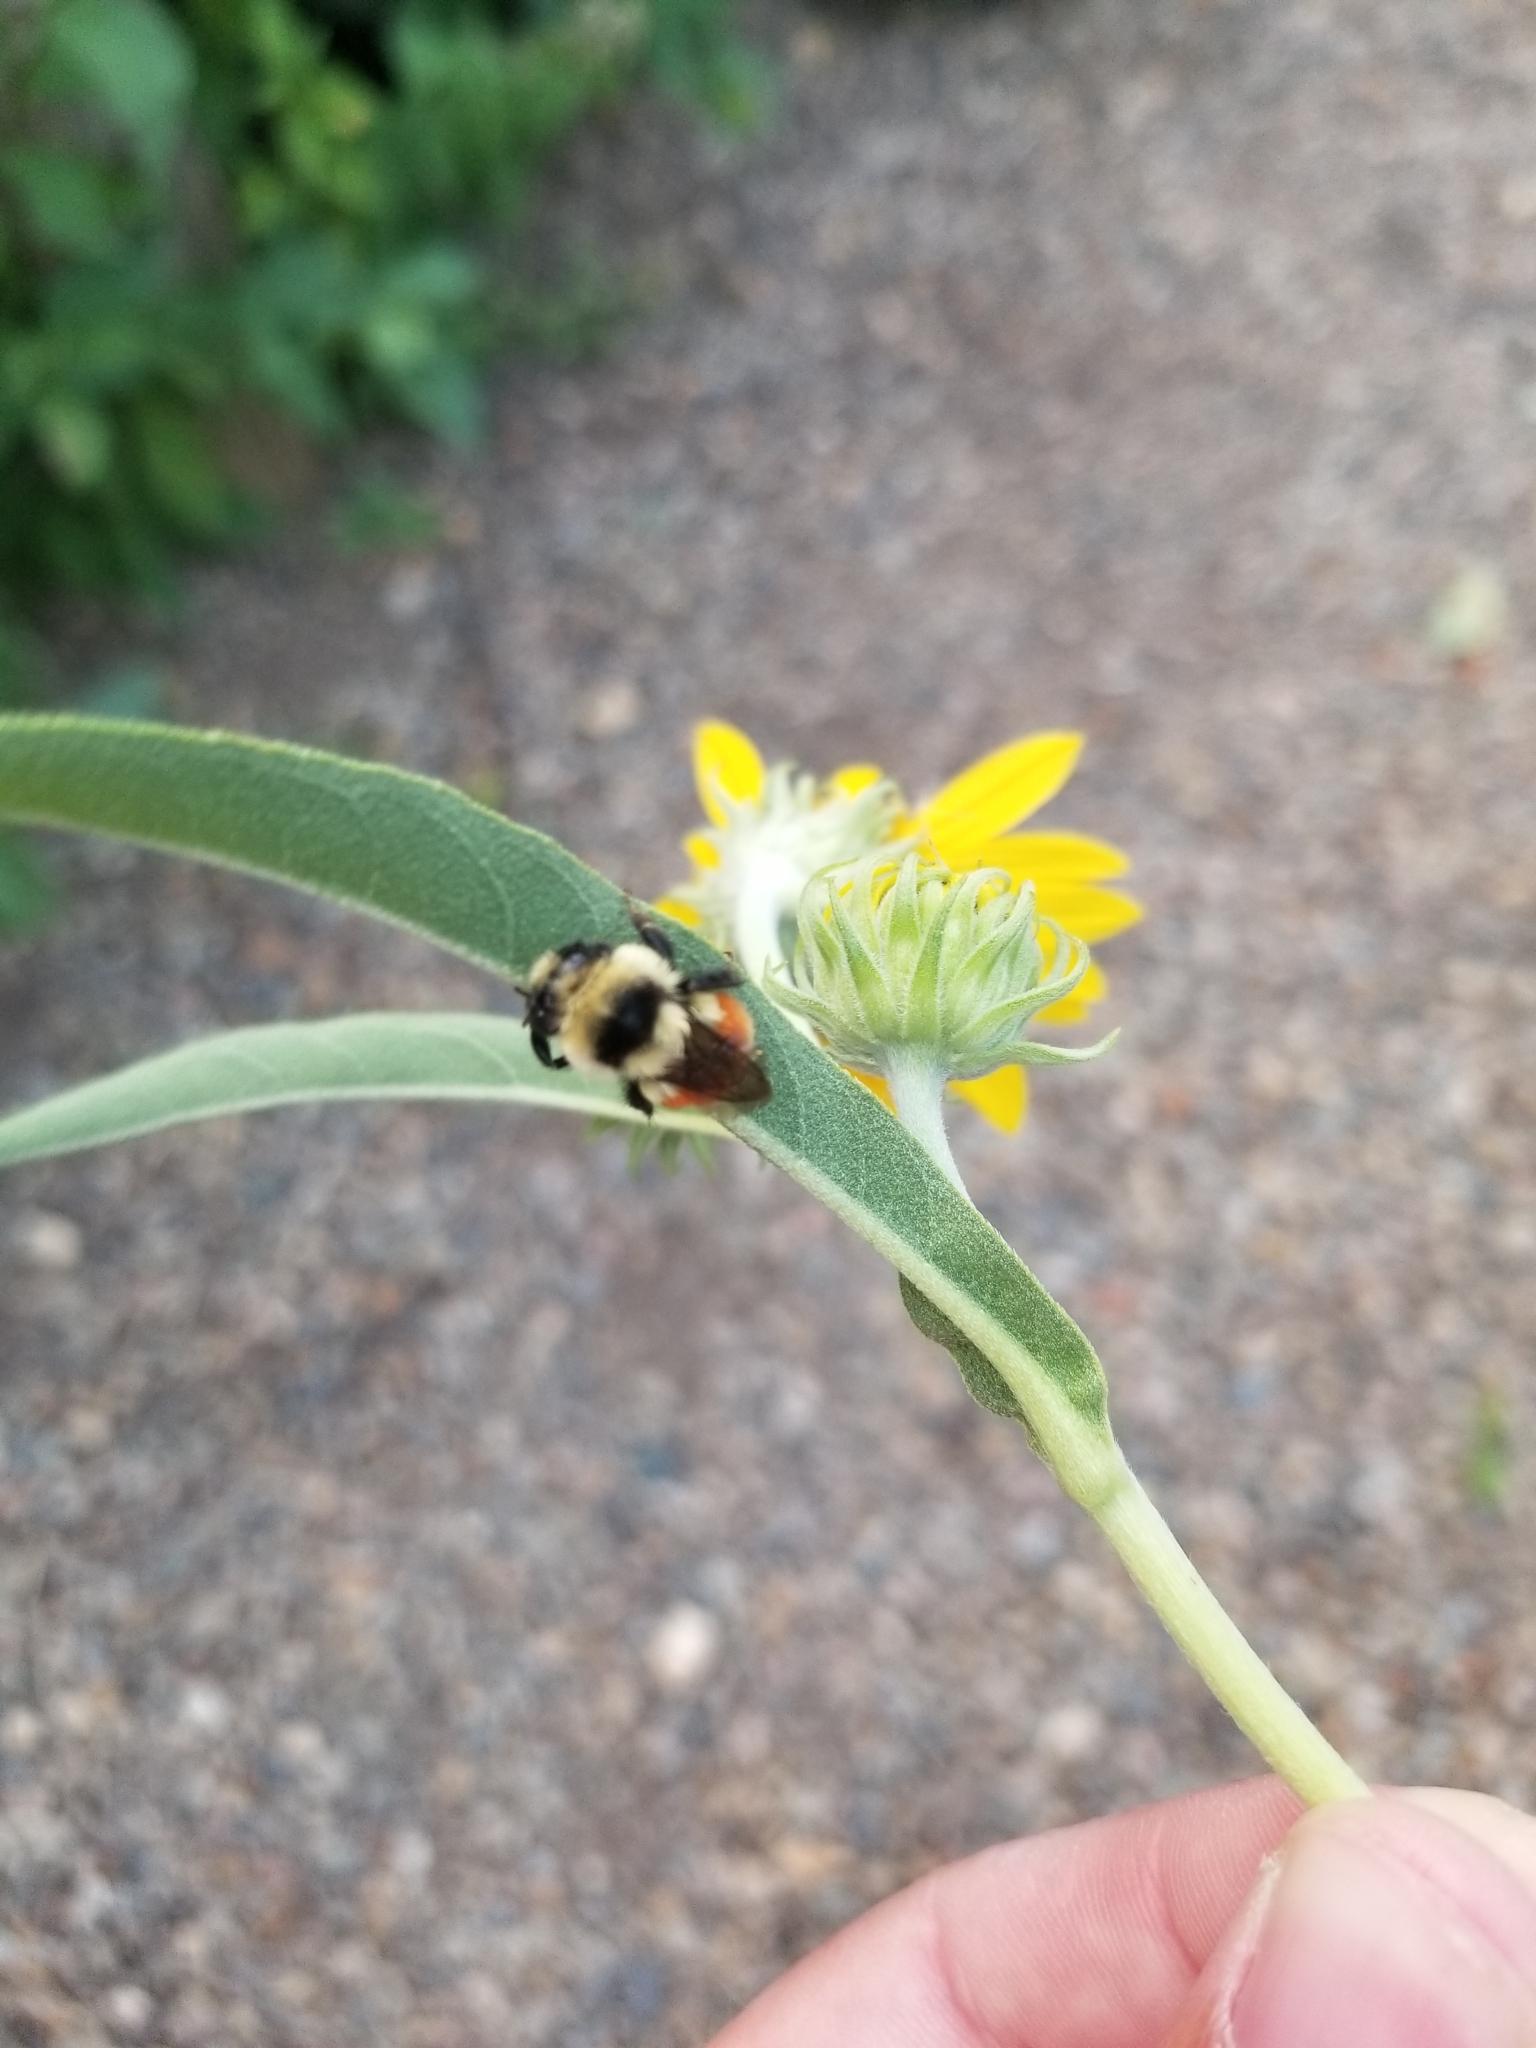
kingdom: Animalia
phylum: Arthropoda
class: Insecta
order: Hymenoptera
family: Apidae
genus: Bombus
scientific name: Bombus huntii
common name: Hunt bumble bee
